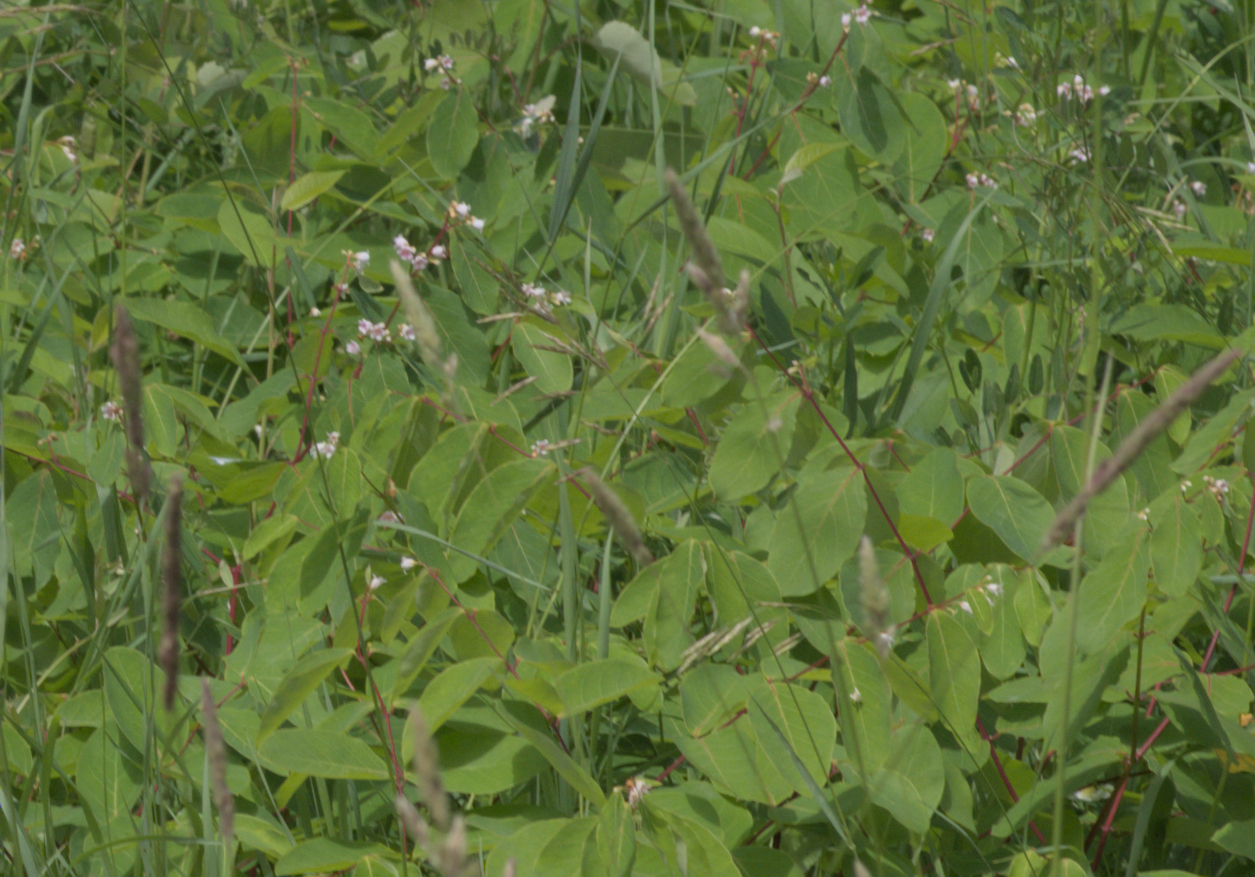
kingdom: Plantae
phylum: Tracheophyta
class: Magnoliopsida
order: Gentianales
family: Apocynaceae
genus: Apocynum
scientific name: Apocynum androsaemifolium
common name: Spreading dogbane
